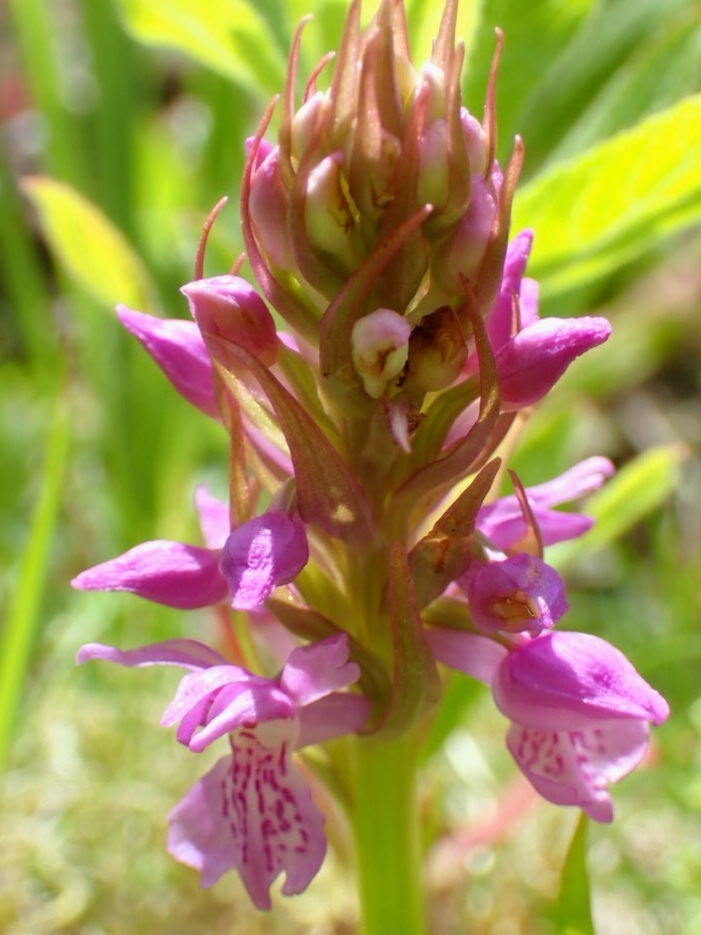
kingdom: Plantae
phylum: Tracheophyta
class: Liliopsida
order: Asparagales
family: Orchidaceae
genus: Dactylorhiza
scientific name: Dactylorhiza majalis
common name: Marsh orchid
